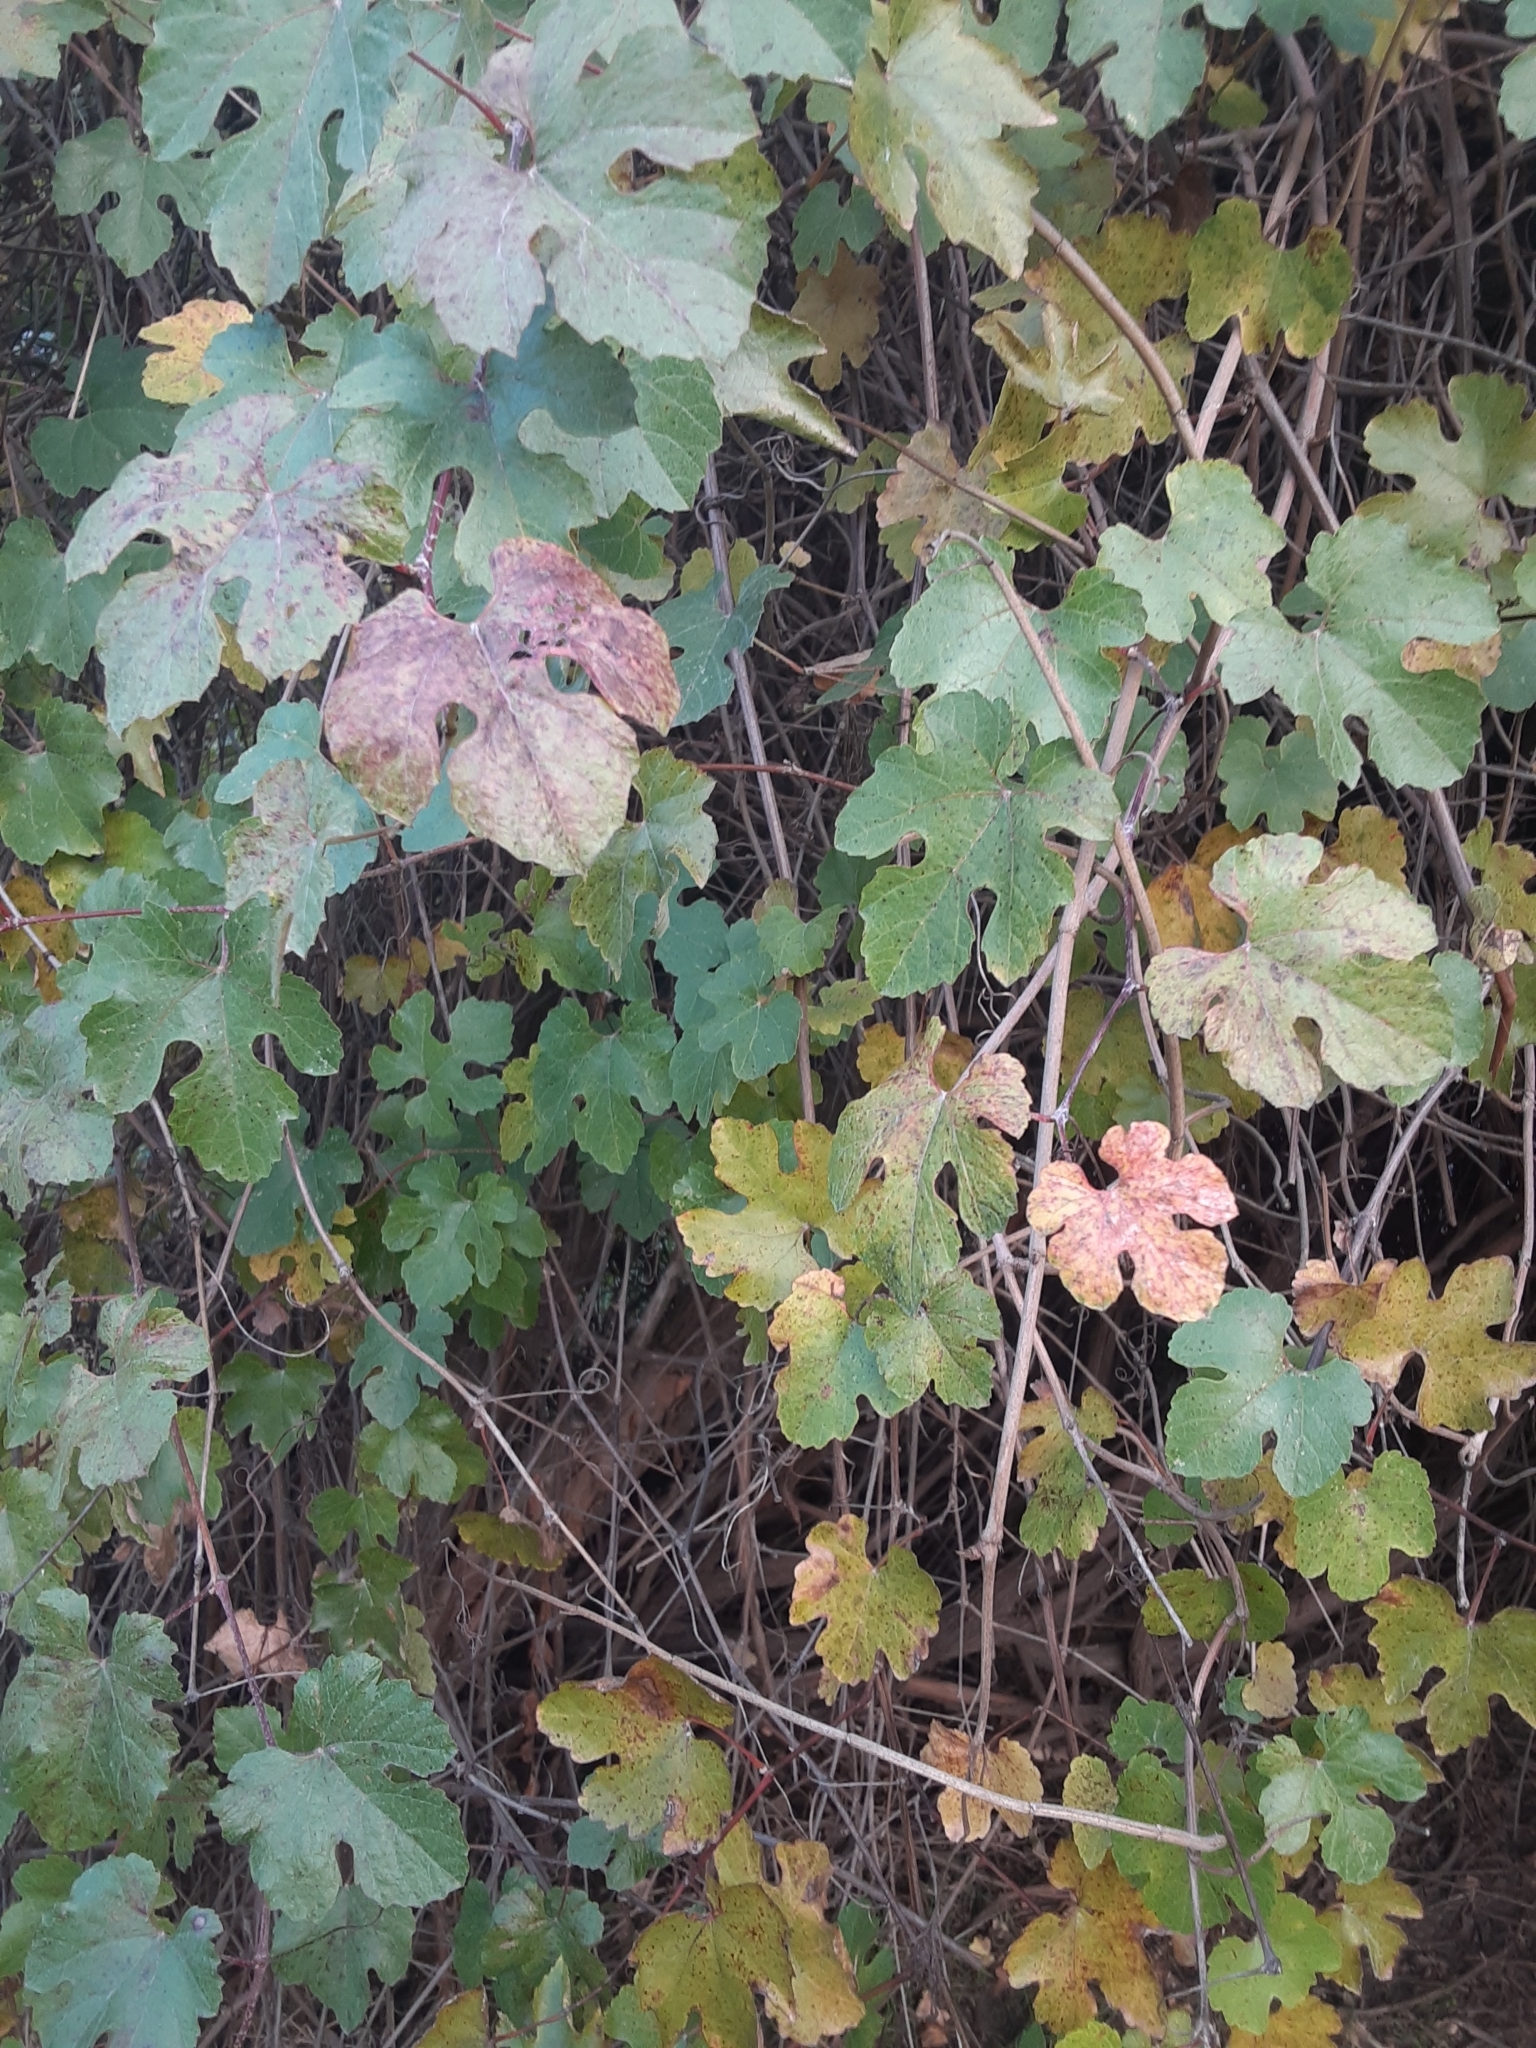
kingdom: Plantae
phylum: Tracheophyta
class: Magnoliopsida
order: Vitales
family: Vitaceae
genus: Vitis
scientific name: Vitis californica
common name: California wild grape
